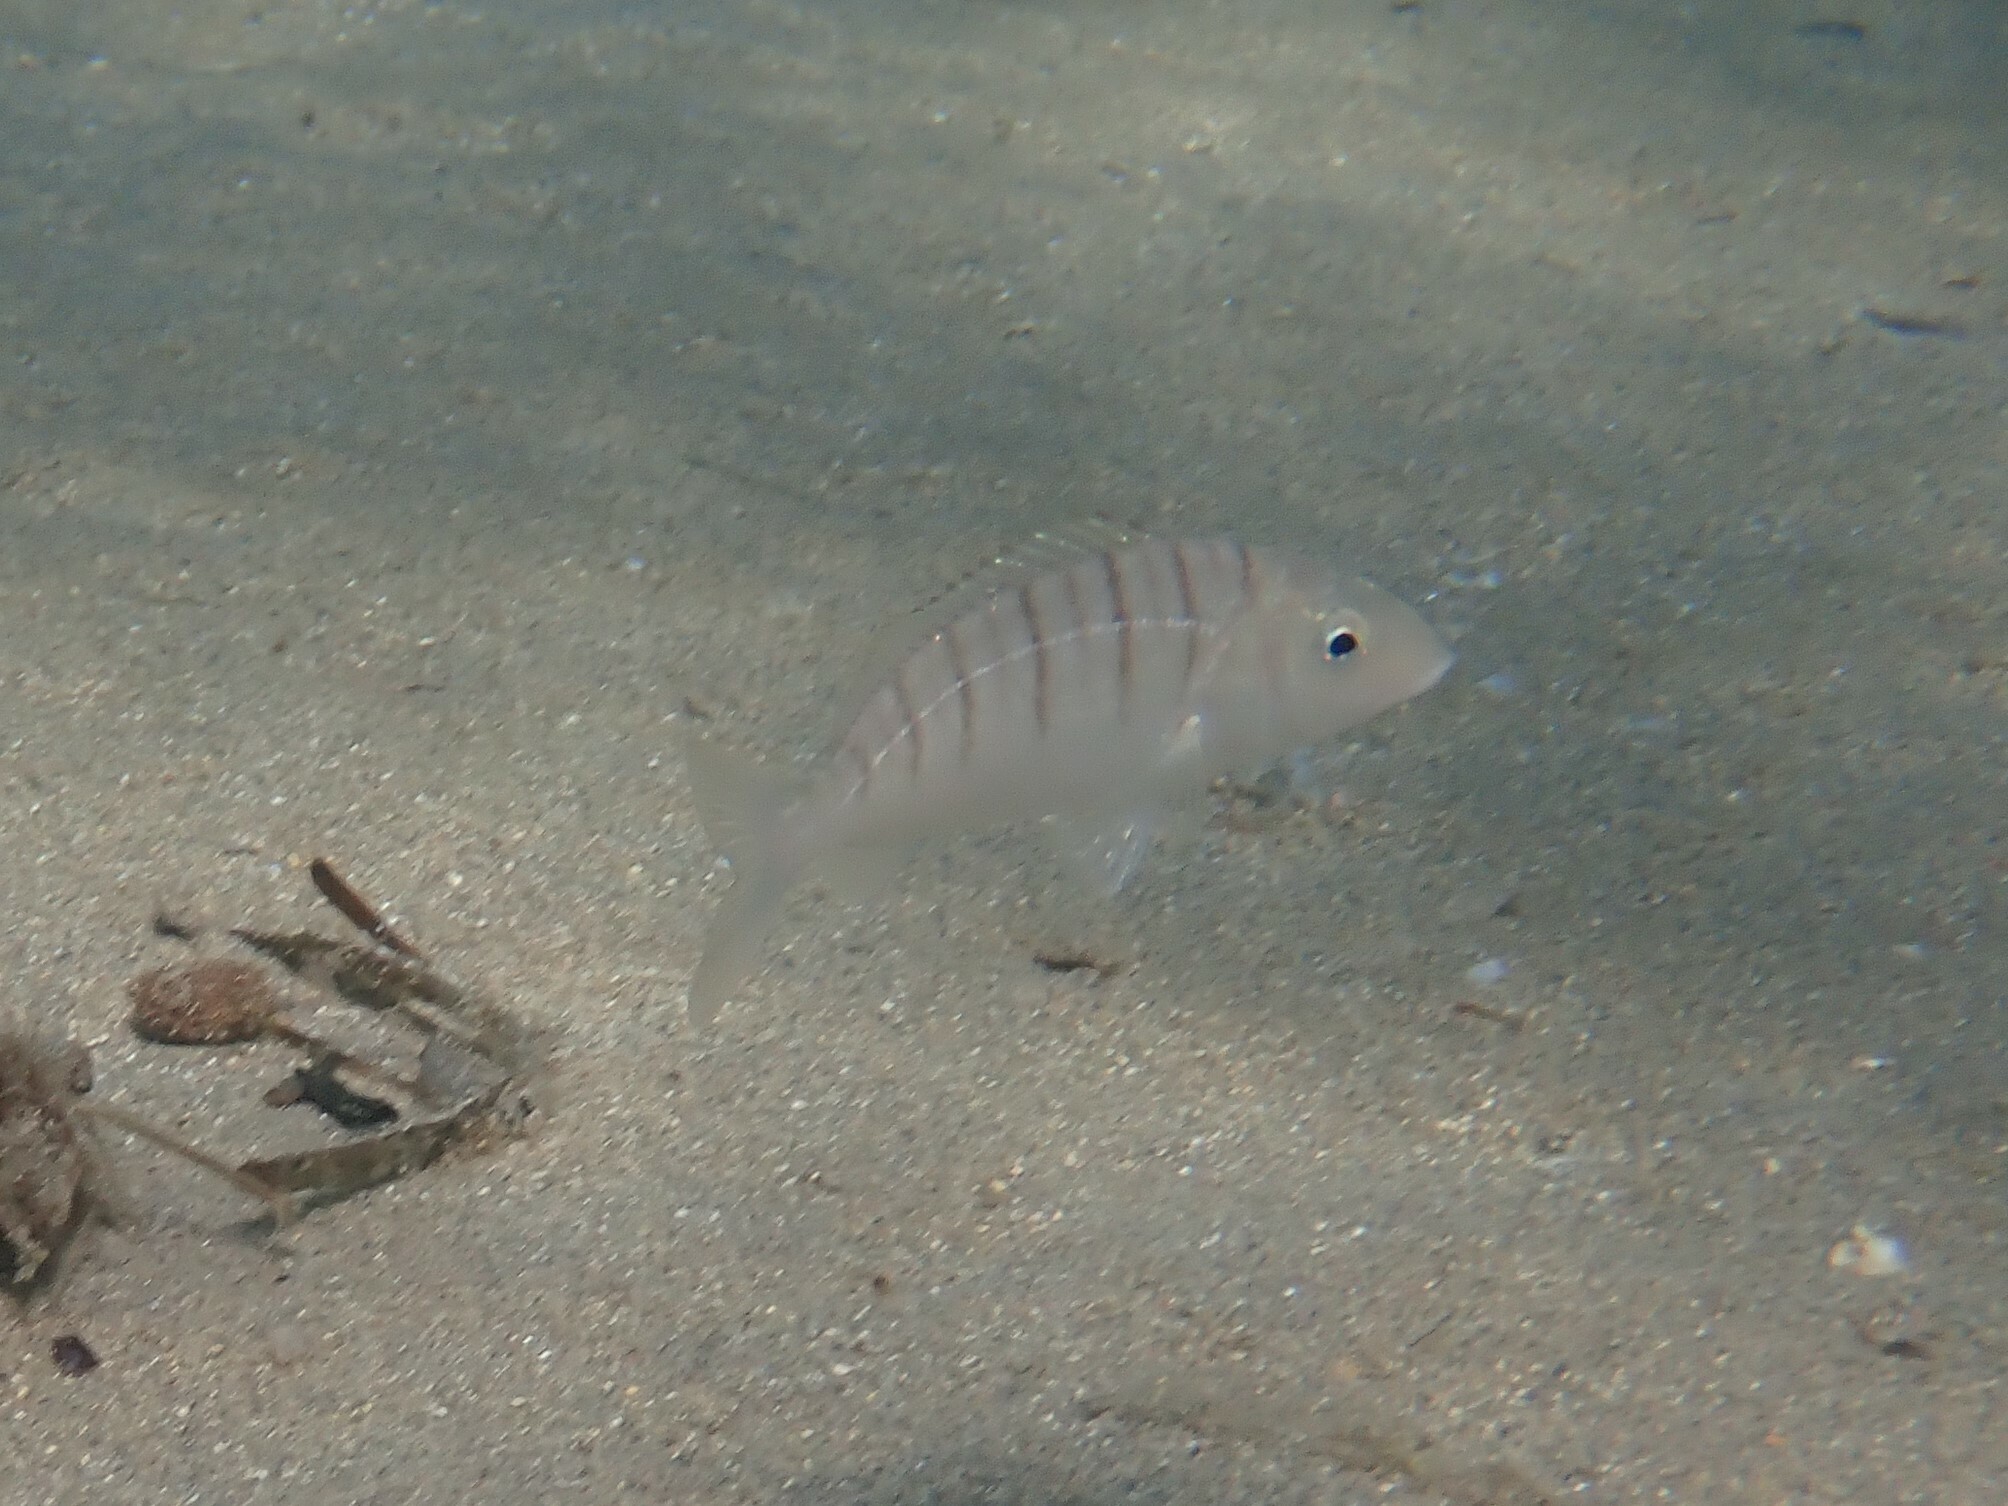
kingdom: Animalia
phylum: Chordata
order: Perciformes
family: Sparidae
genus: Lithognathus
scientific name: Lithognathus mormyrus
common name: Sand steenbras
